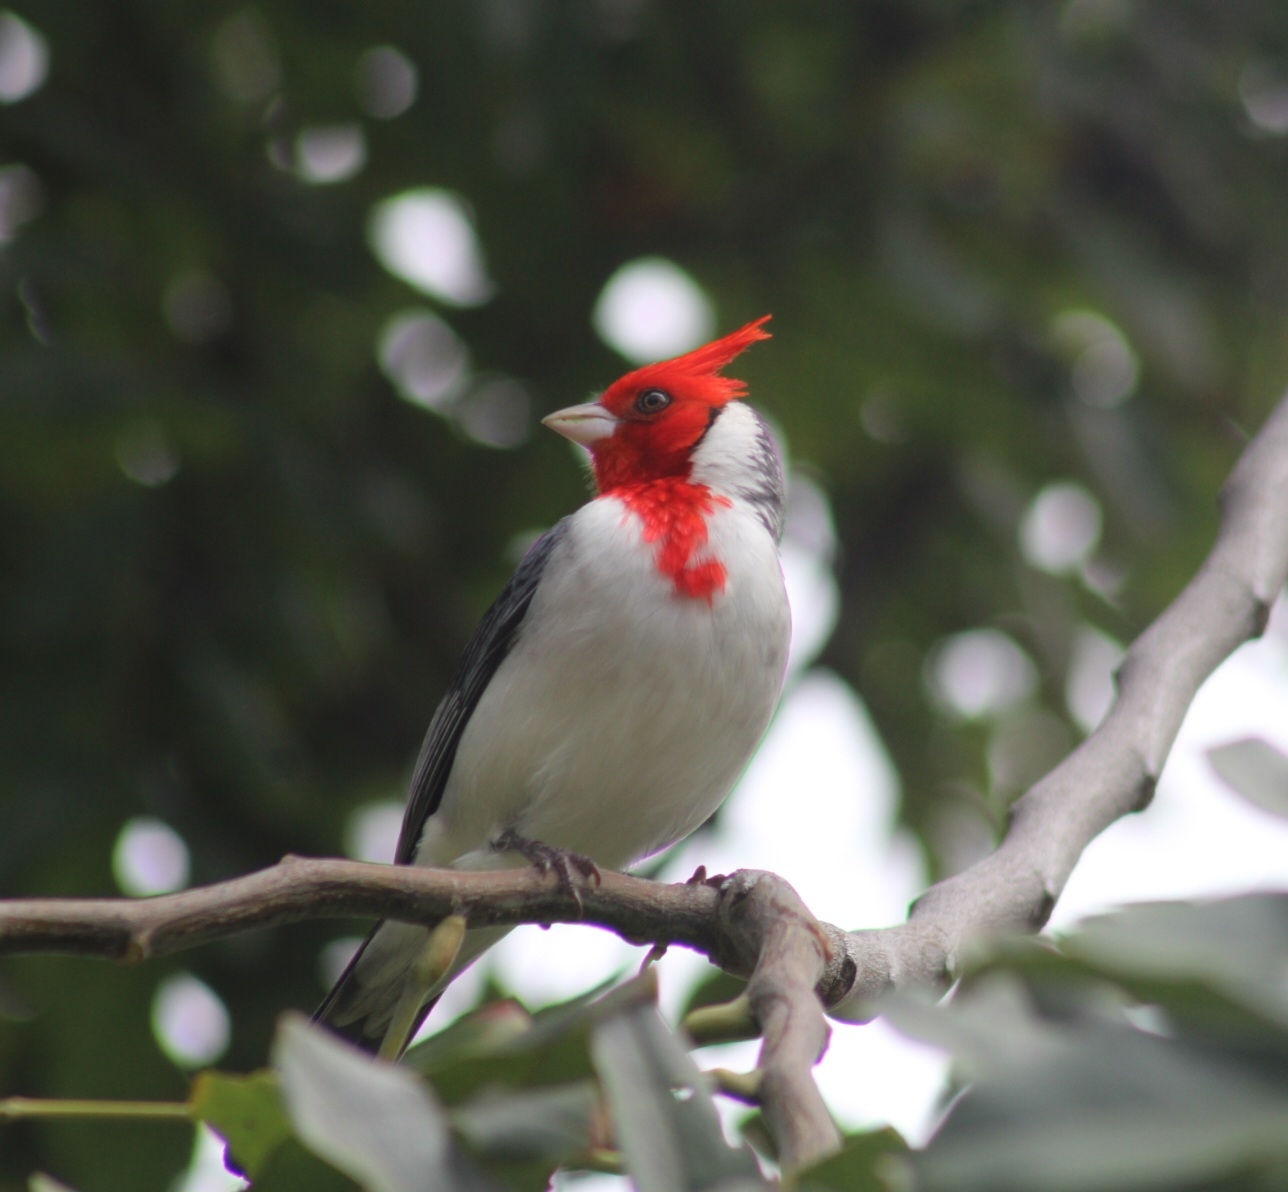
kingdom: Animalia
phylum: Chordata
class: Aves
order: Passeriformes
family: Thraupidae
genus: Paroaria
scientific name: Paroaria coronata
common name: Red-crested cardinal
